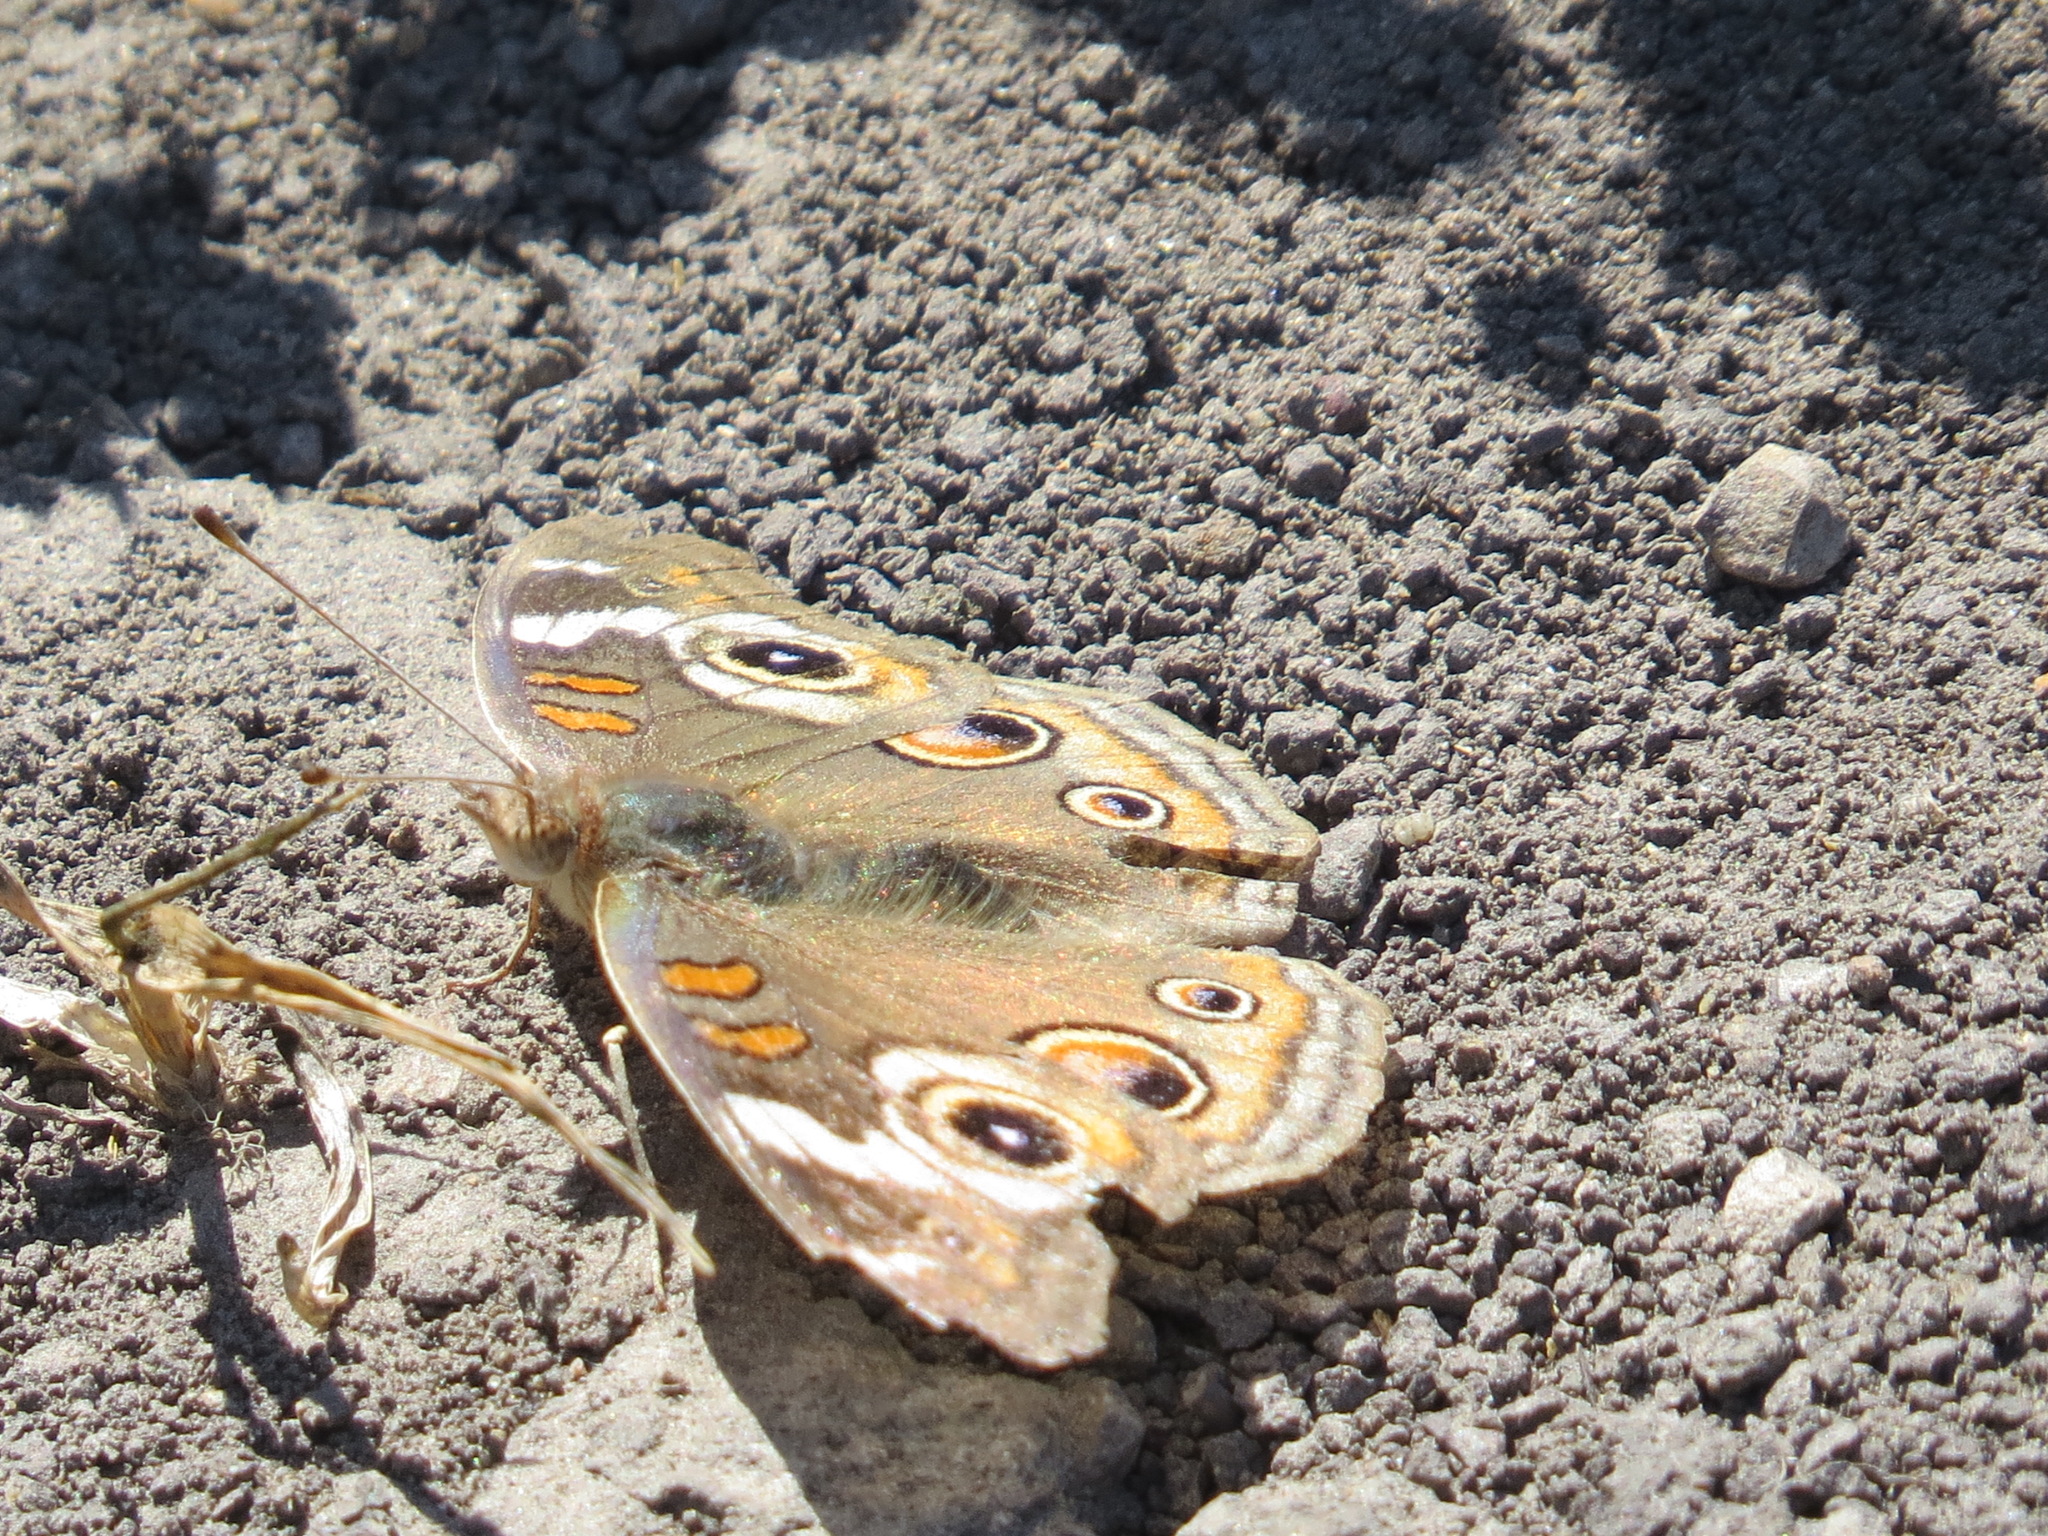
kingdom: Animalia
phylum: Arthropoda
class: Insecta
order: Lepidoptera
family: Nymphalidae
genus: Junonia
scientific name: Junonia grisea
